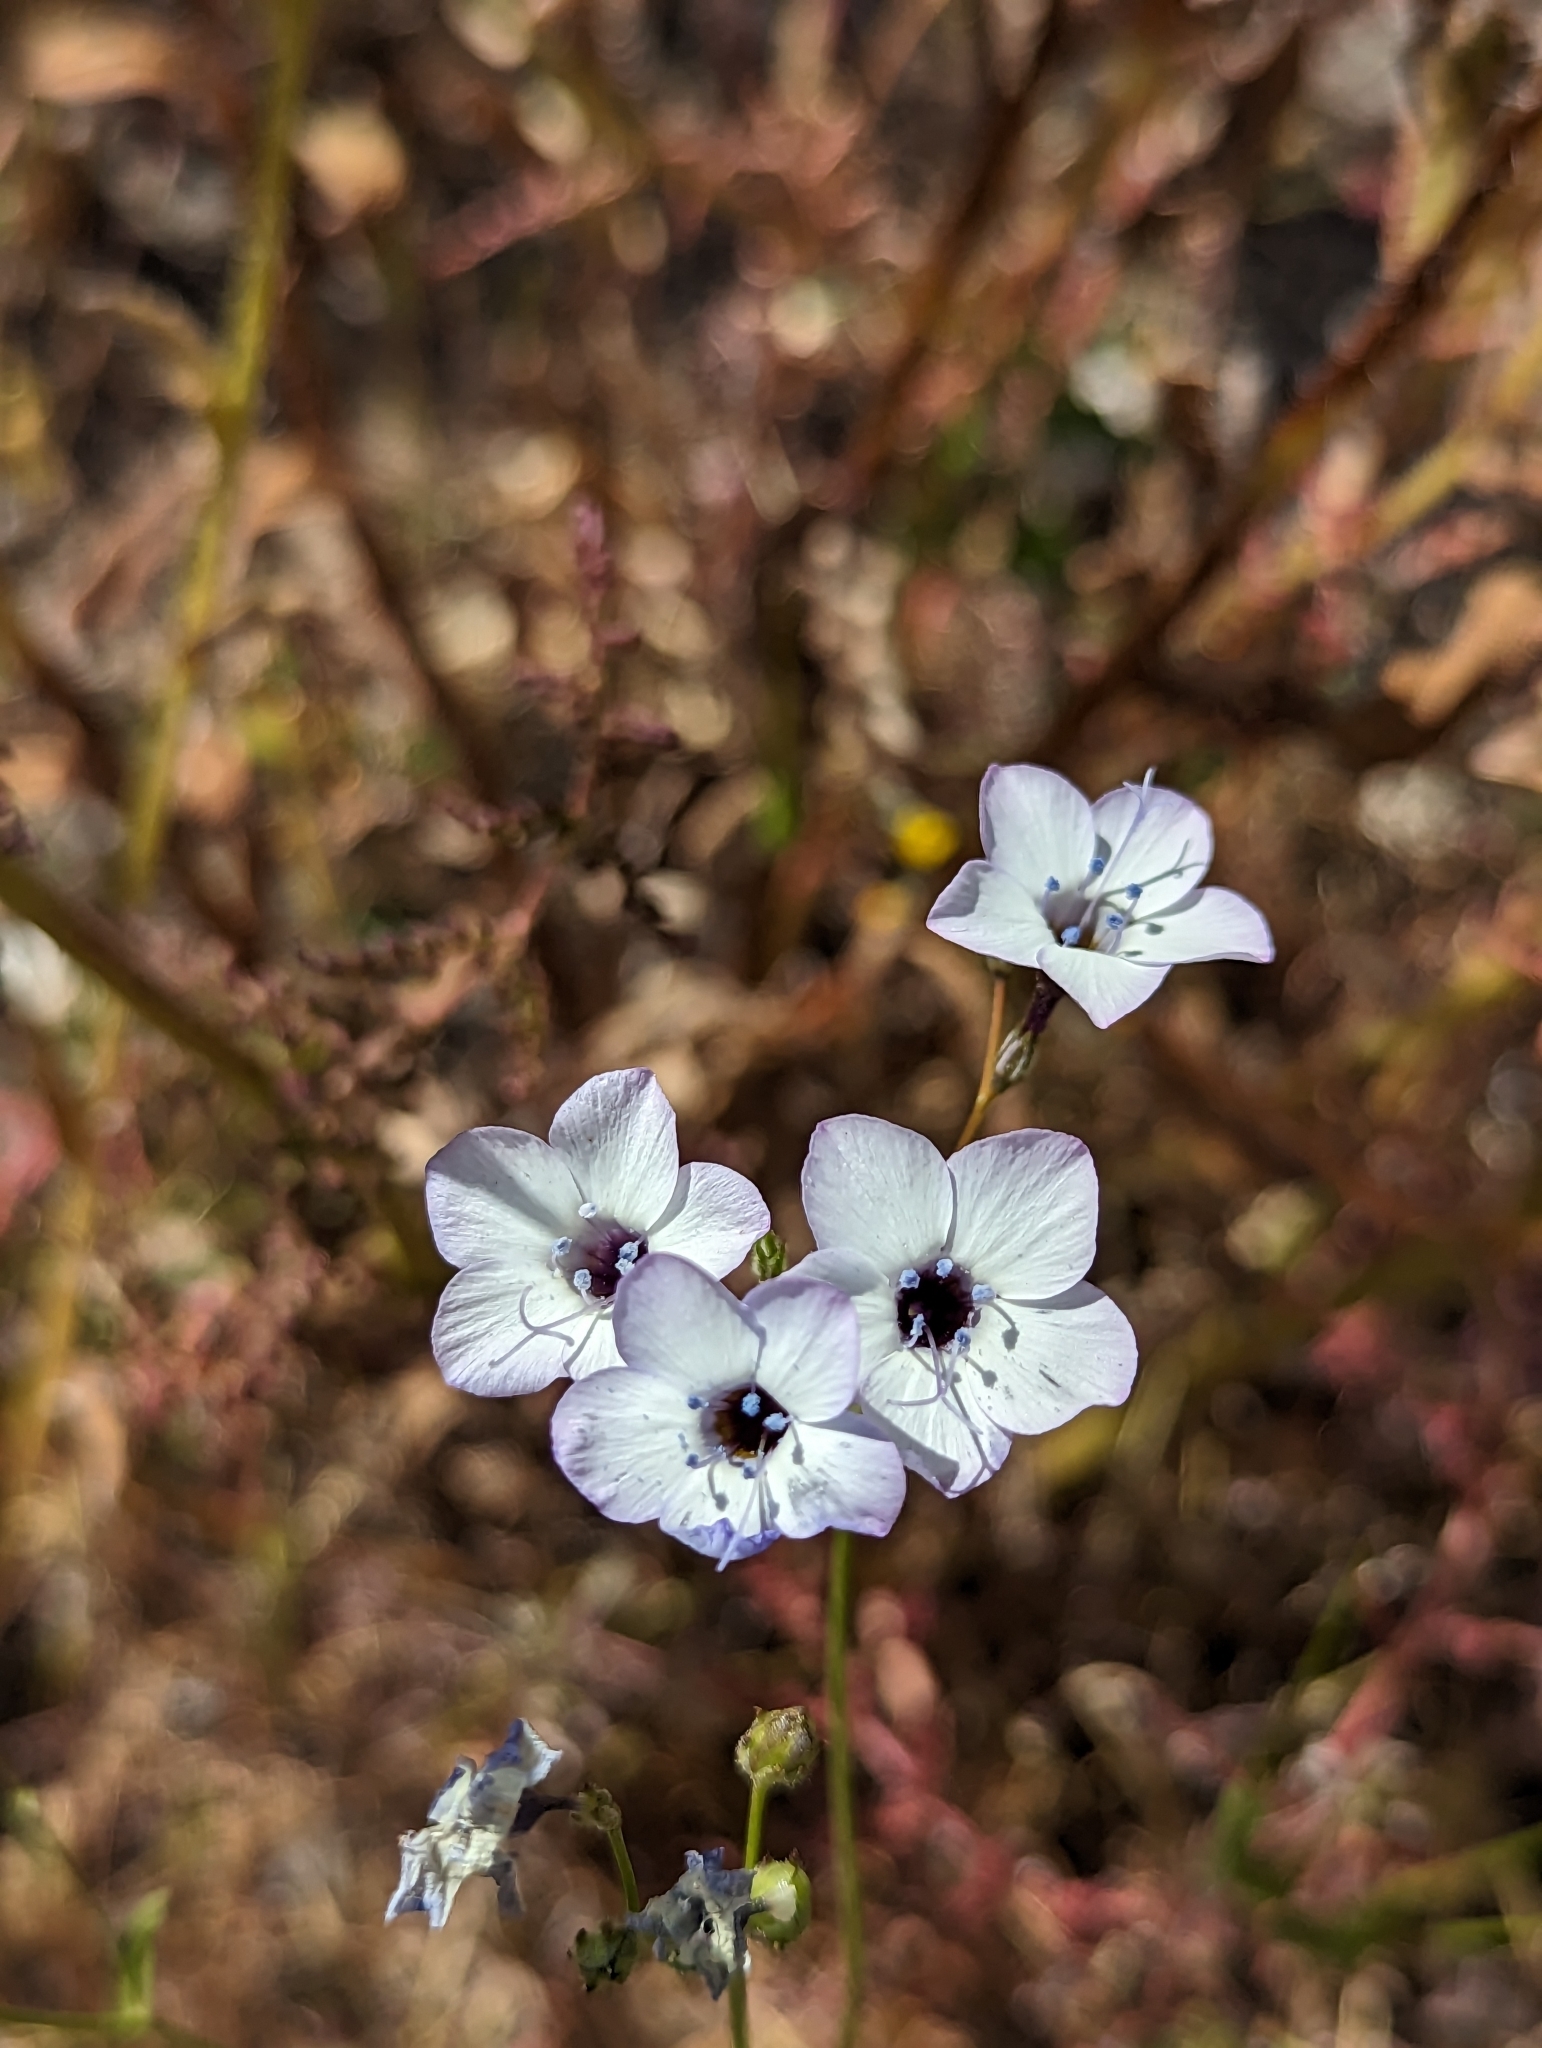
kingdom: Plantae
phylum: Tracheophyta
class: Magnoliopsida
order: Ericales
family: Polemoniaceae
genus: Gilia
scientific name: Gilia latiflora
